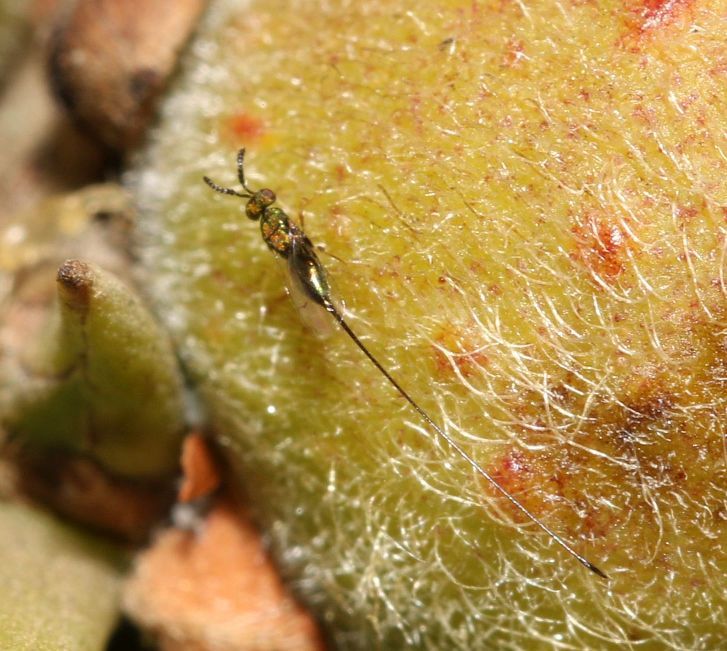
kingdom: Animalia
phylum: Arthropoda
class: Insecta
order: Hymenoptera
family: Agaonidae
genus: Sycoscapter
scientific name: Sycoscapter cornutus
